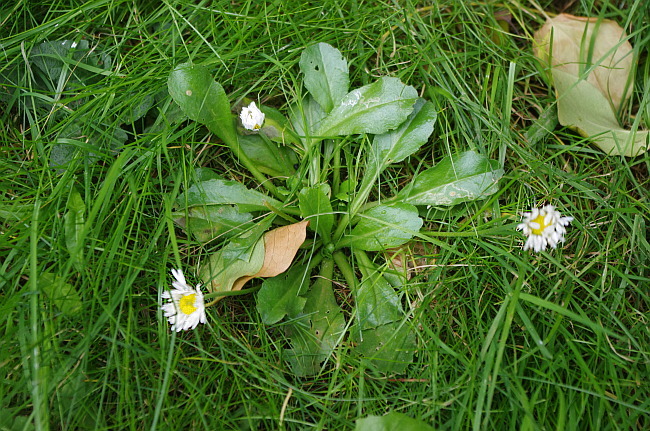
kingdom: Plantae
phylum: Tracheophyta
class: Magnoliopsida
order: Asterales
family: Asteraceae
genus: Bellis
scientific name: Bellis perennis
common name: Lawndaisy
